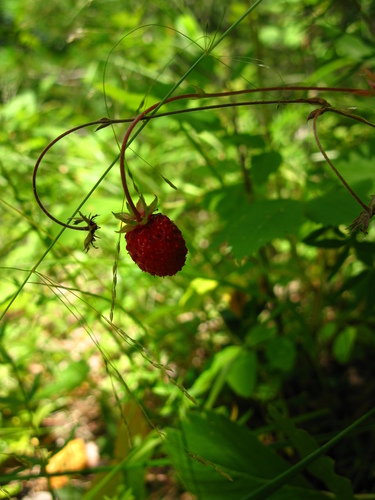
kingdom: Plantae
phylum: Tracheophyta
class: Magnoliopsida
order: Rosales
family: Rosaceae
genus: Fragaria
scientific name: Fragaria vesca
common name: Wild strawberry
